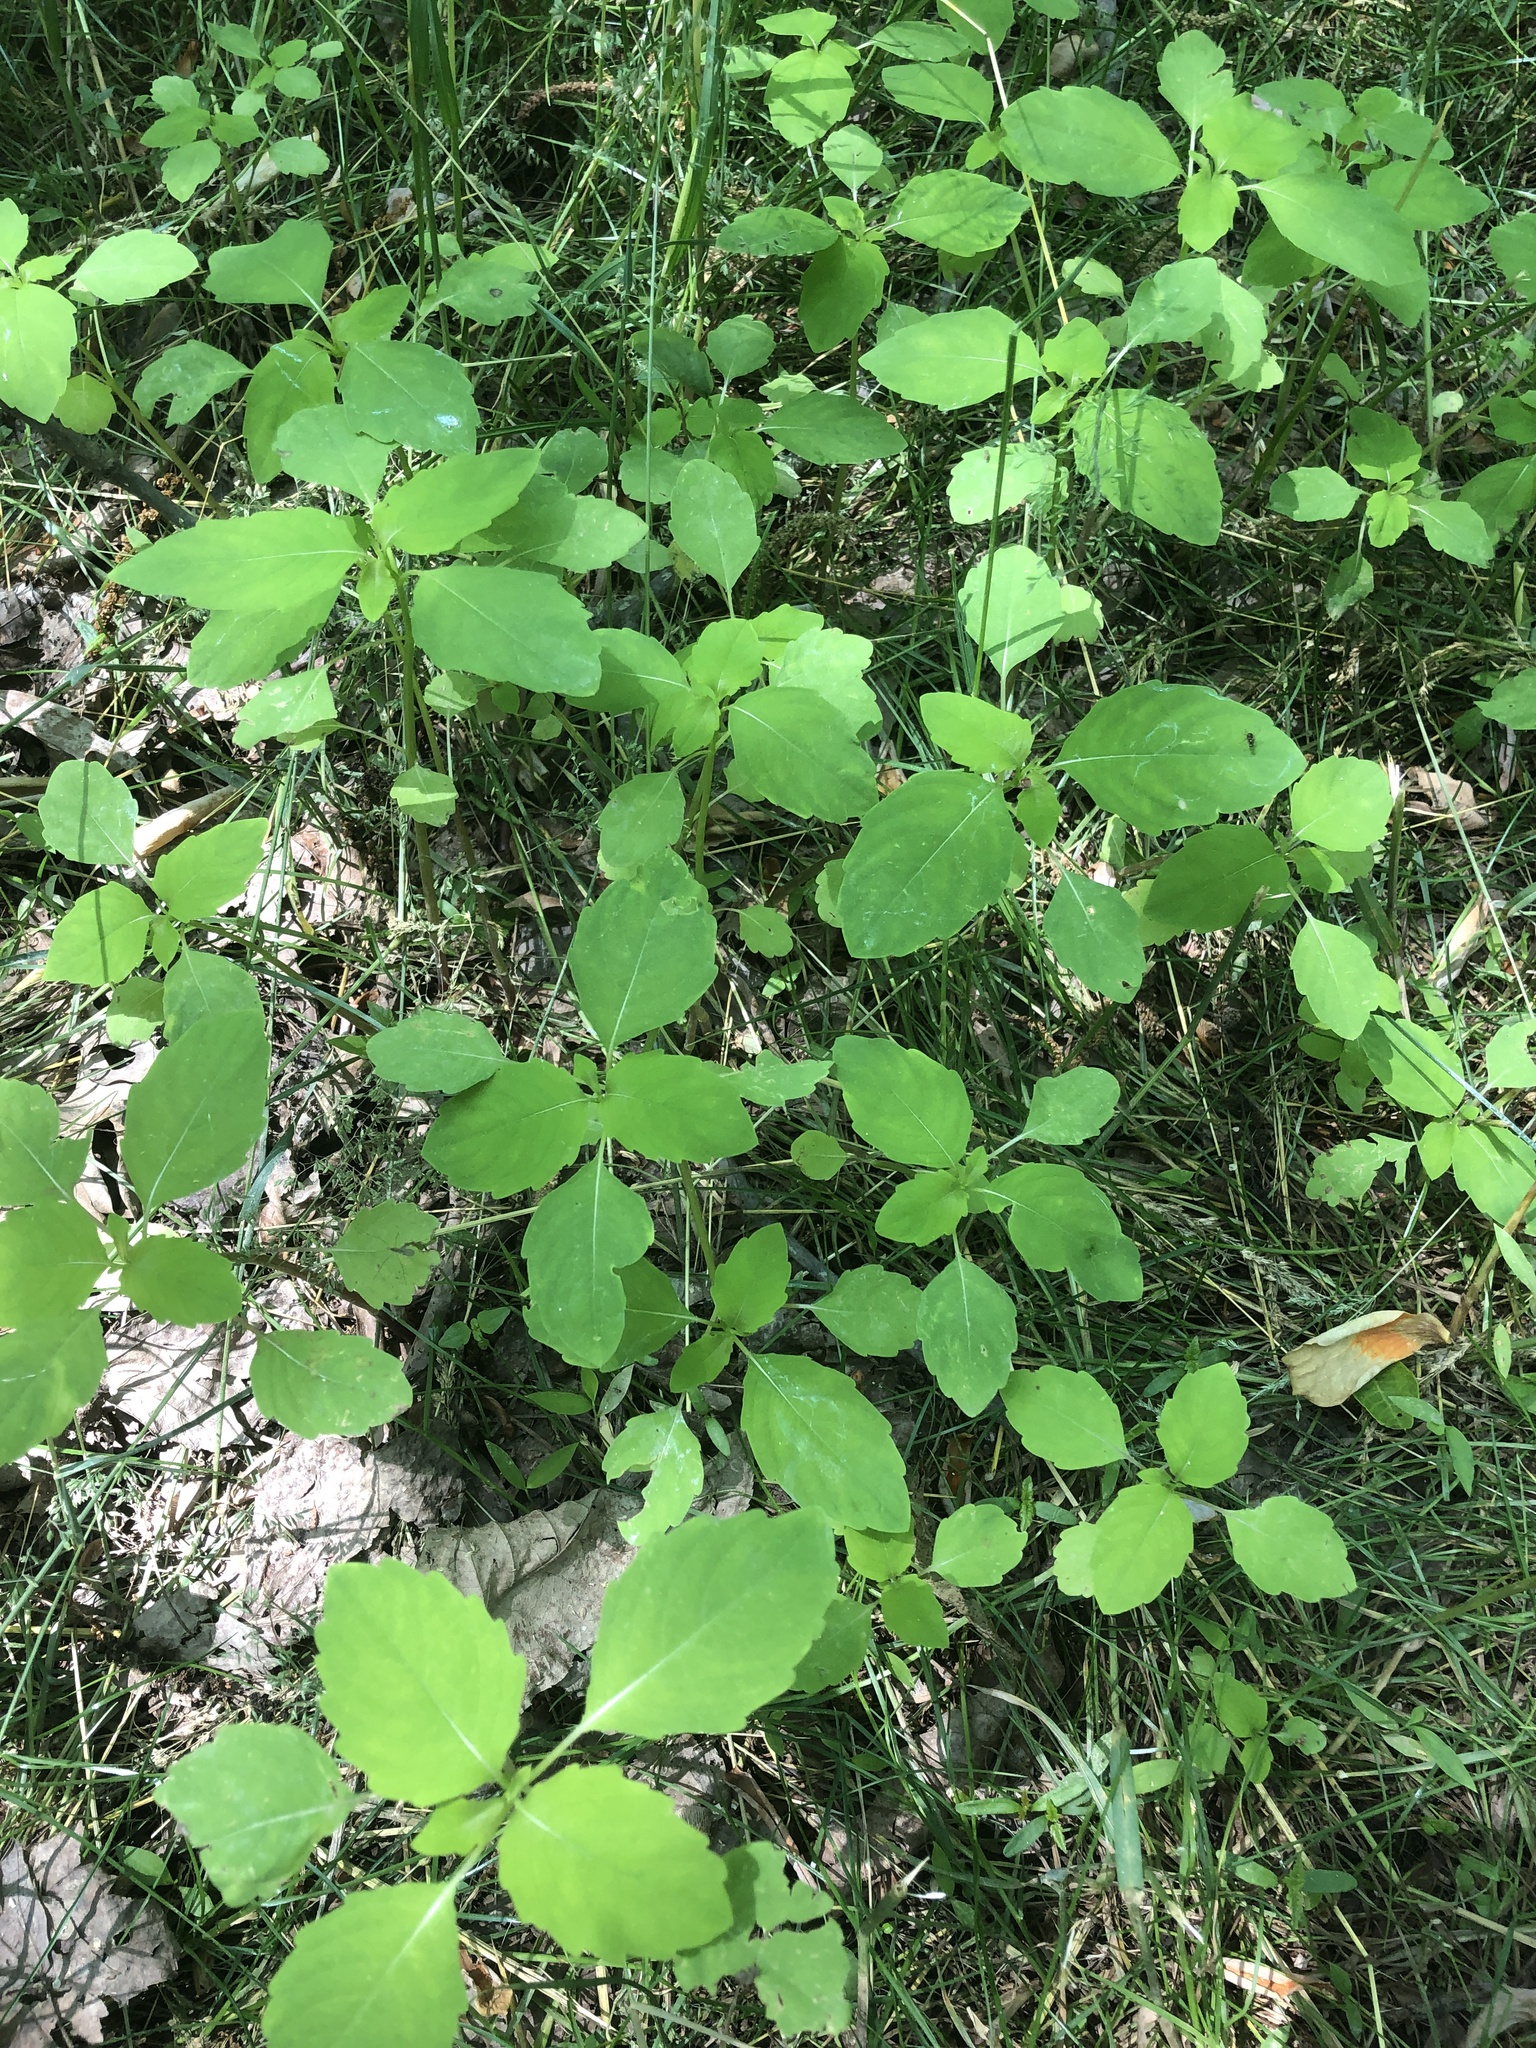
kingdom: Plantae
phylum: Tracheophyta
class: Magnoliopsida
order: Ericales
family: Balsaminaceae
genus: Impatiens
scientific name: Impatiens
